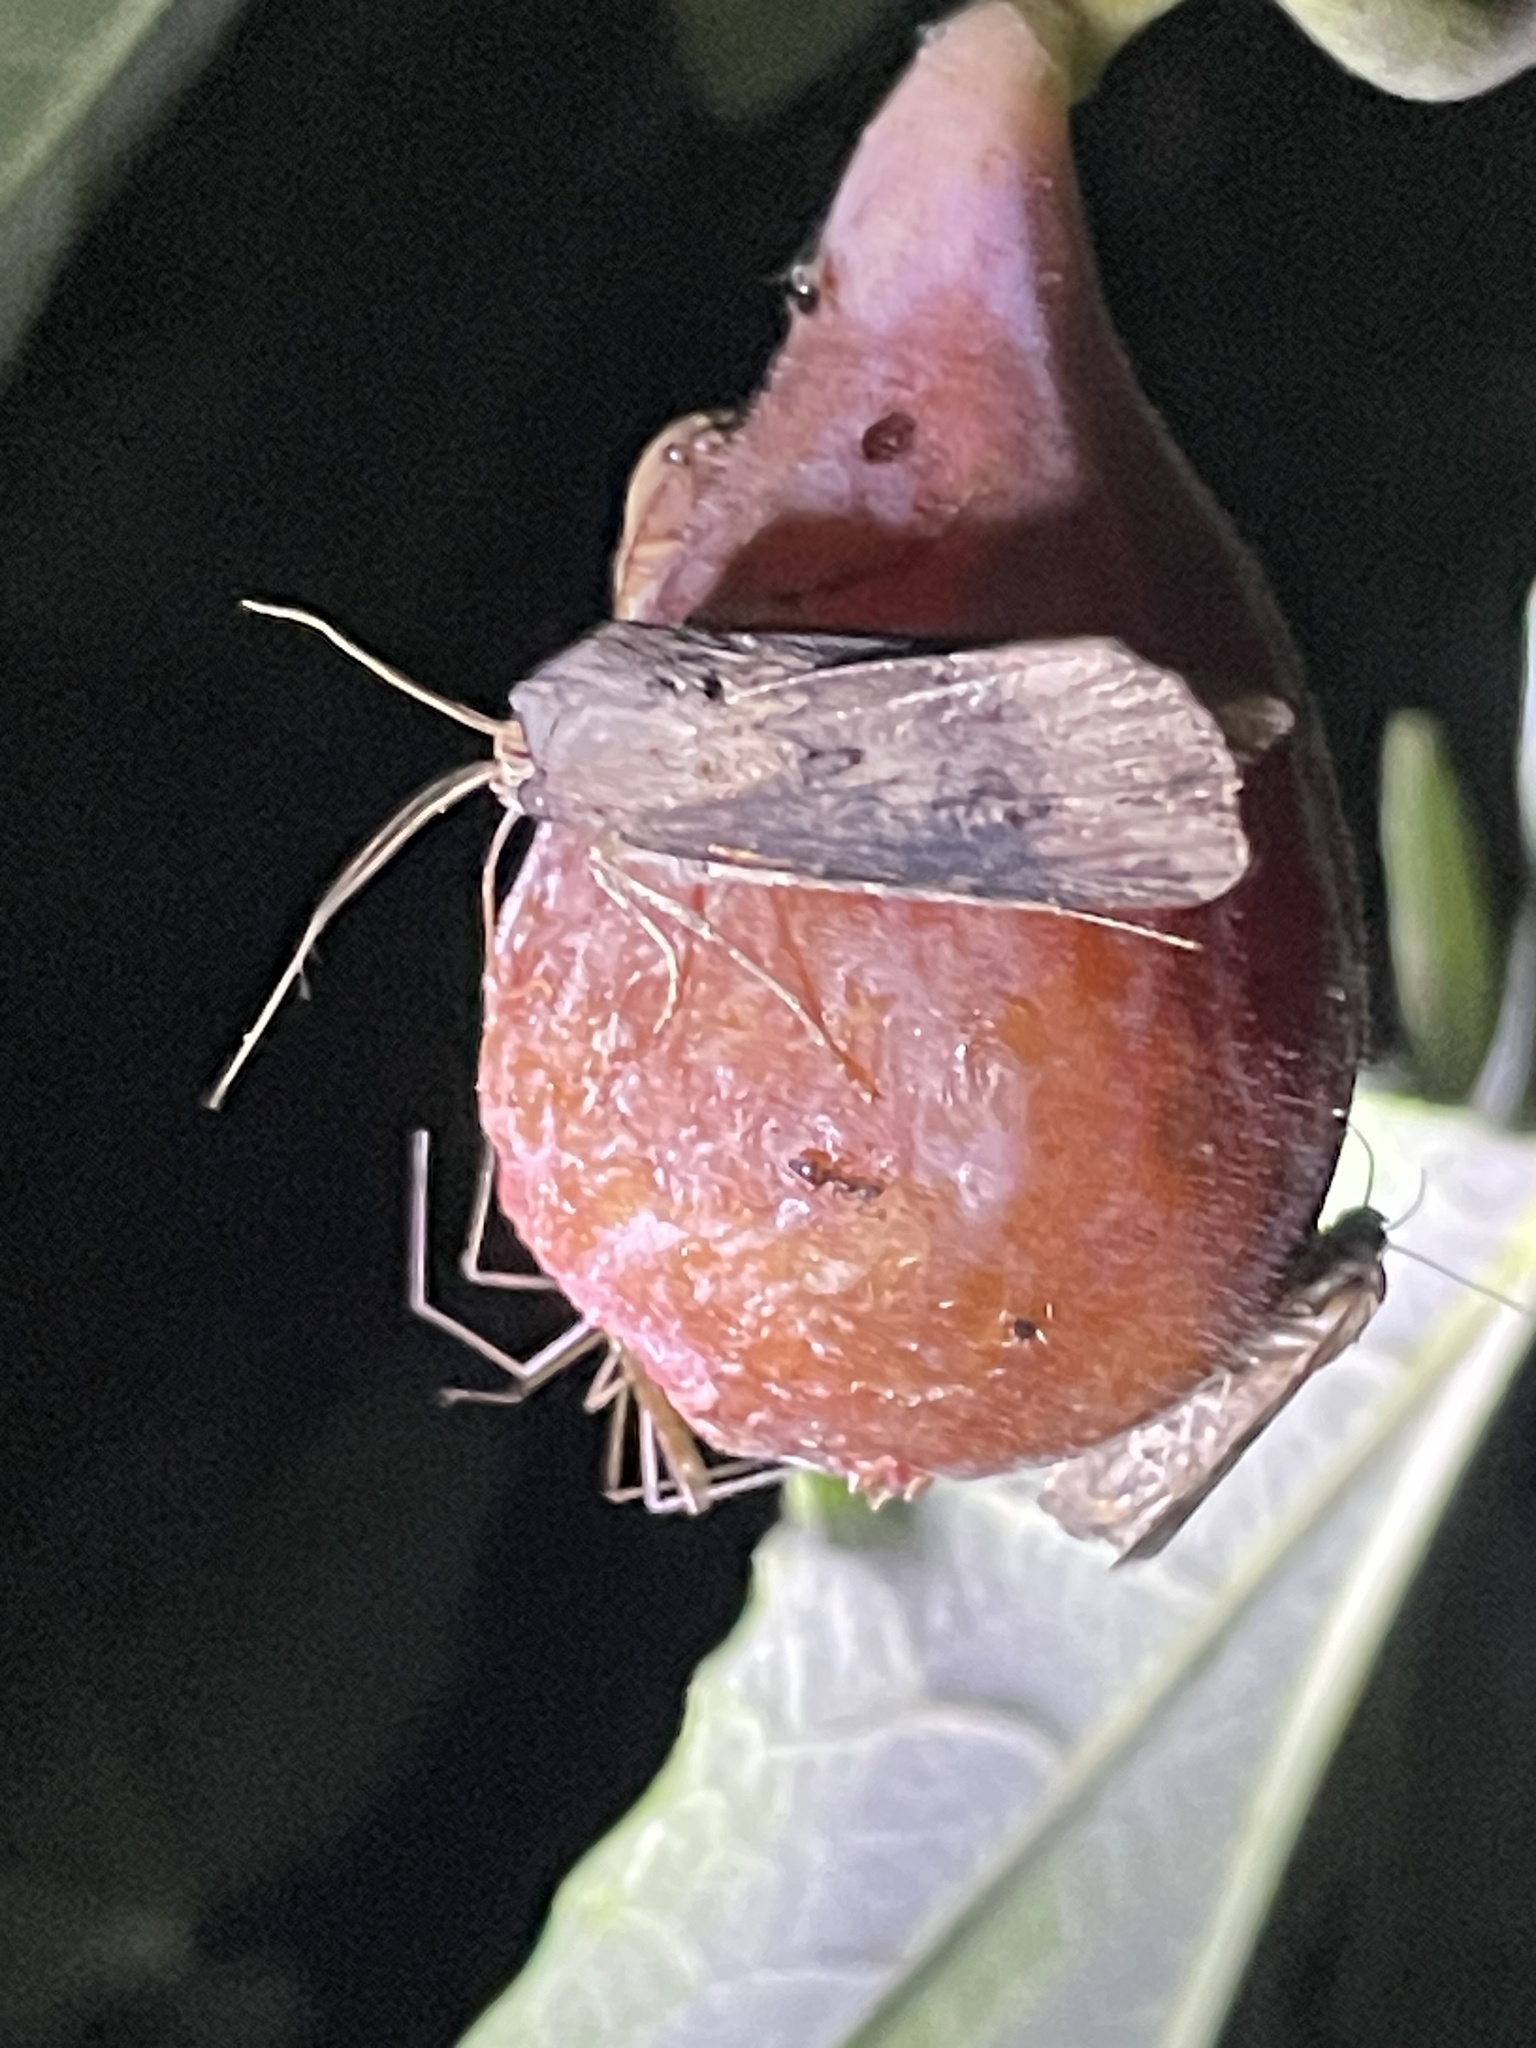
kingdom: Animalia
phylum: Arthropoda
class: Insecta
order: Lepidoptera
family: Noctuidae
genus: Agrotis
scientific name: Agrotis ipsilon
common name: Dark sword-grass
